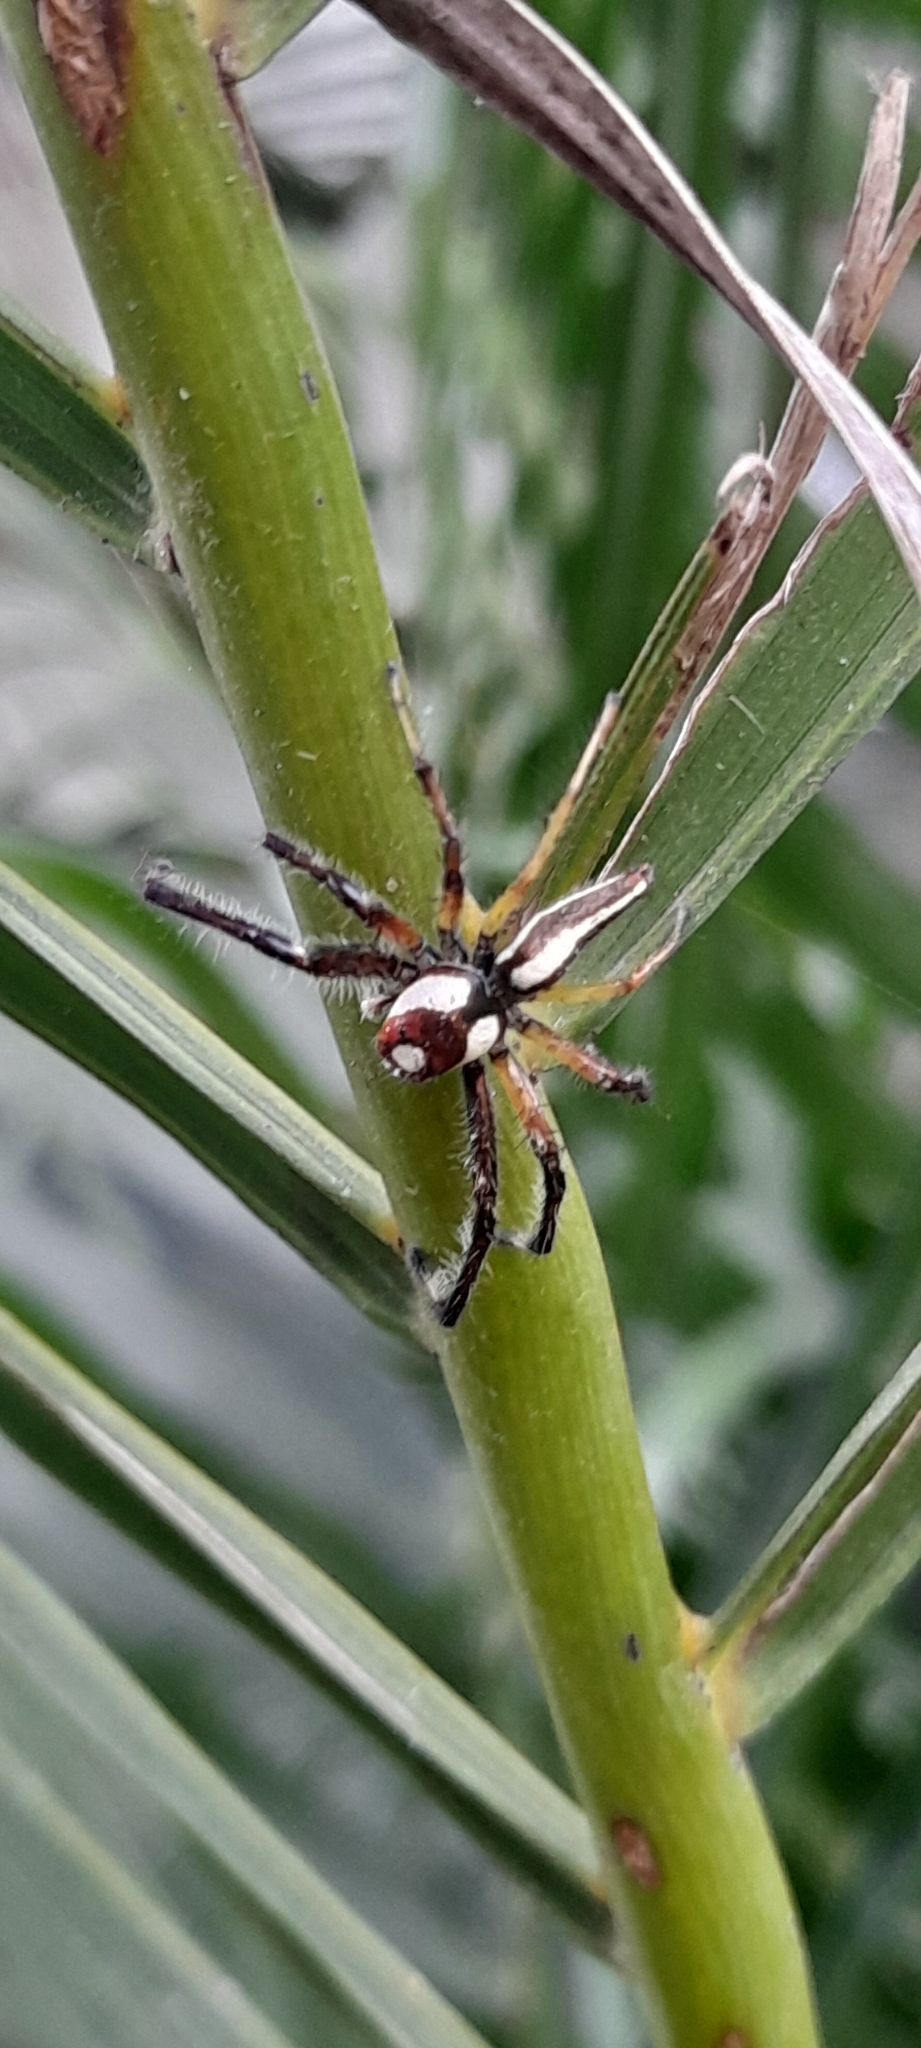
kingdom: Animalia
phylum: Arthropoda
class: Arachnida
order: Araneae
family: Salticidae
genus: Telamonia
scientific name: Telamonia dimidiata
